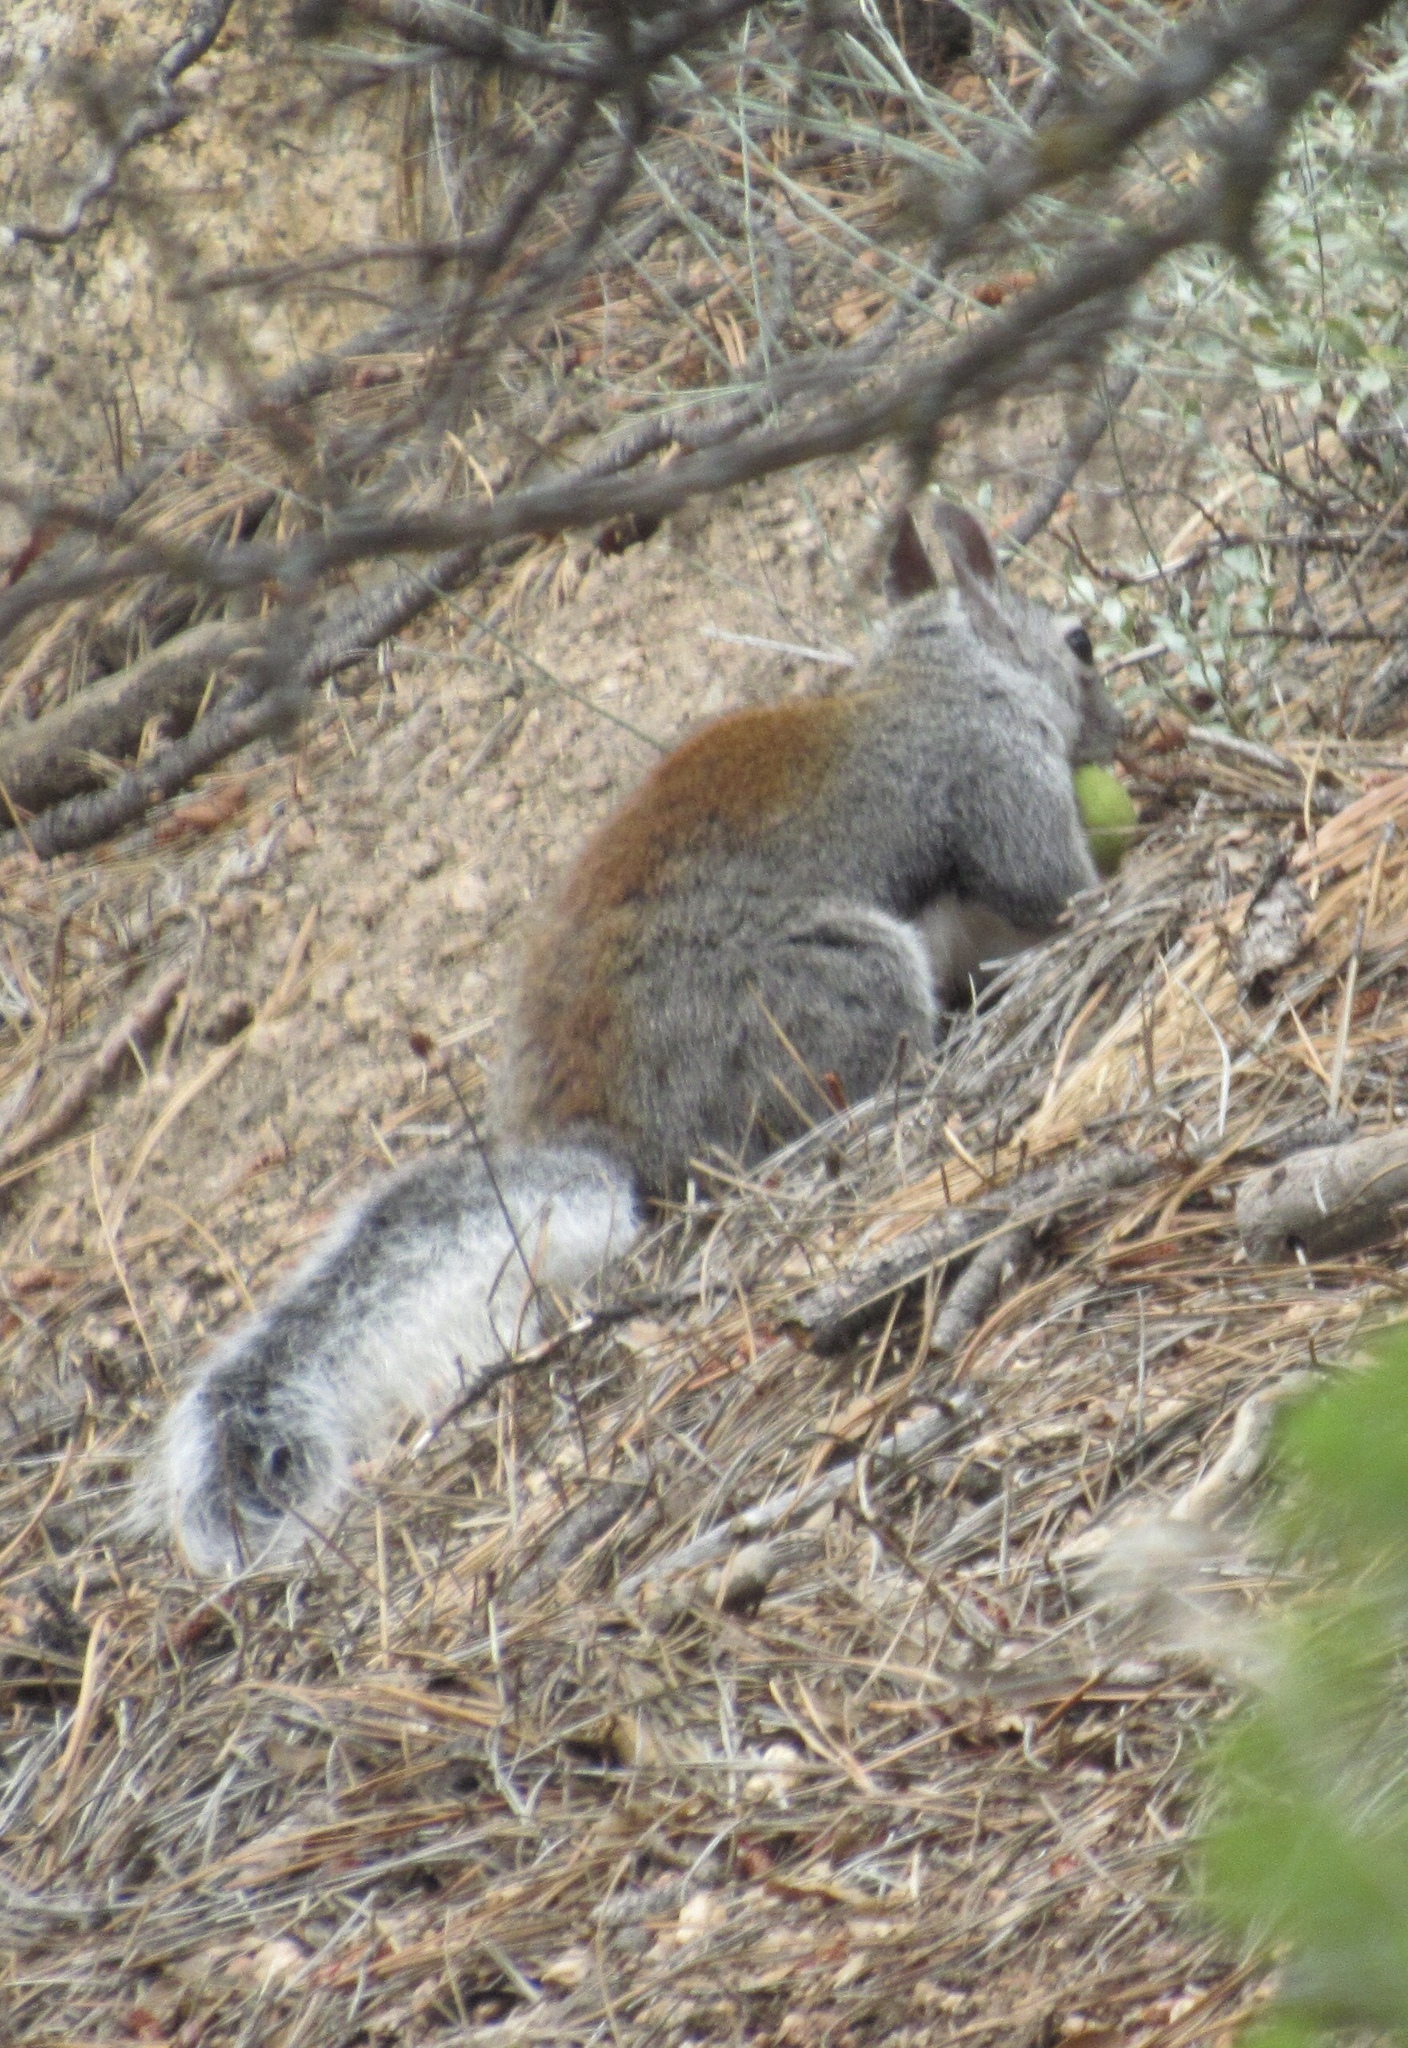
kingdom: Animalia
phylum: Chordata
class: Mammalia
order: Rodentia
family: Sciuridae
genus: Sciurus
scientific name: Sciurus aberti
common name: Abert's squirrel
